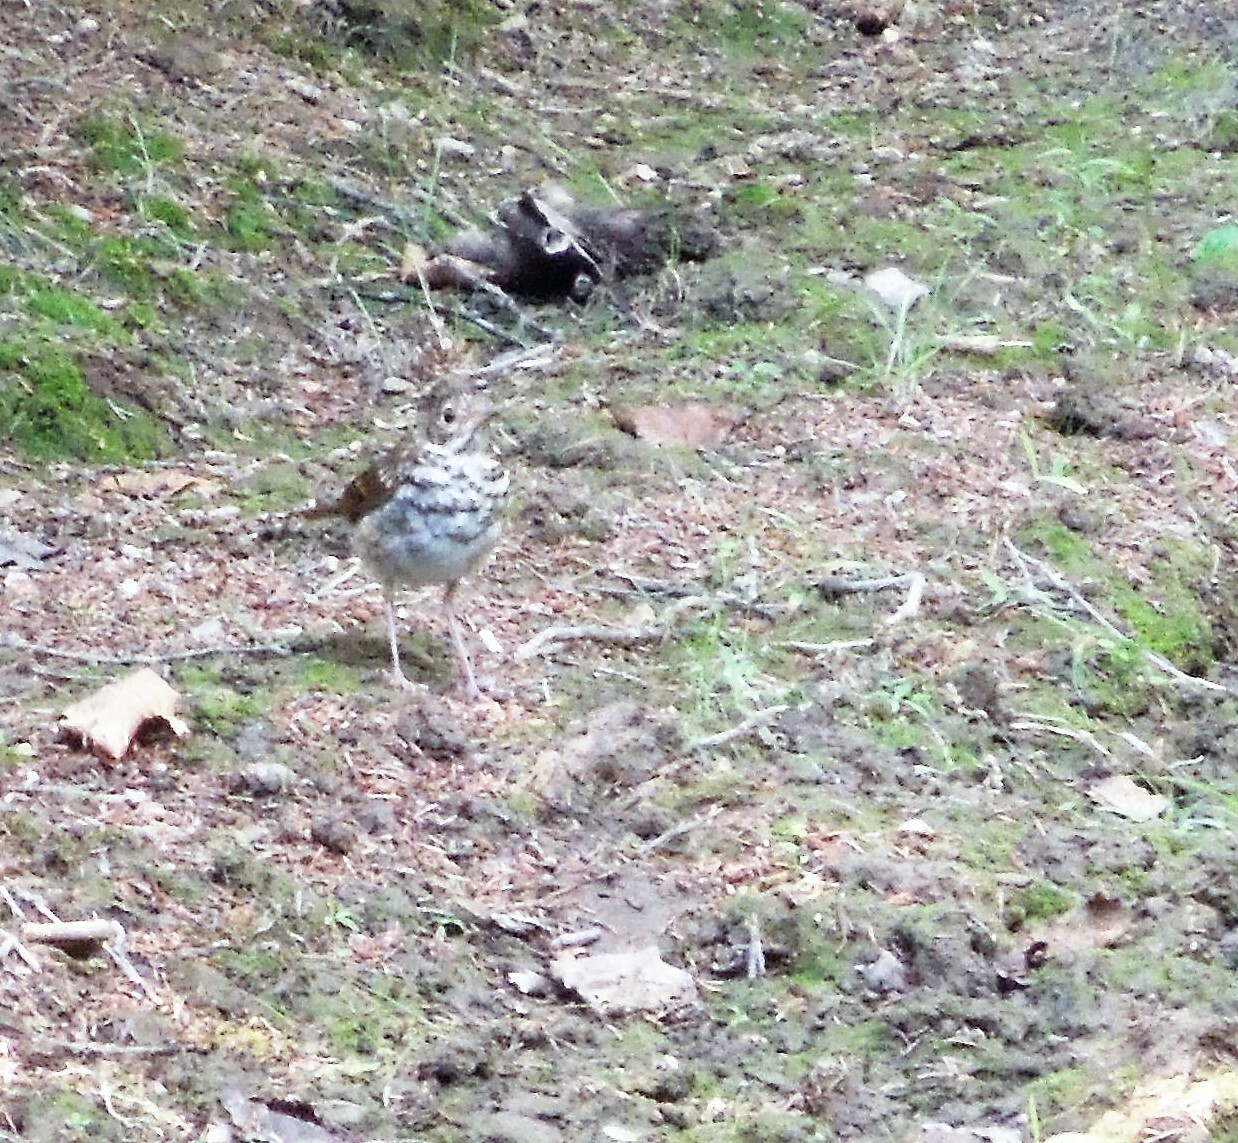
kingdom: Animalia
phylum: Chordata
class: Aves
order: Passeriformes
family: Turdidae
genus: Catharus
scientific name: Catharus guttatus
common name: Hermit thrush
